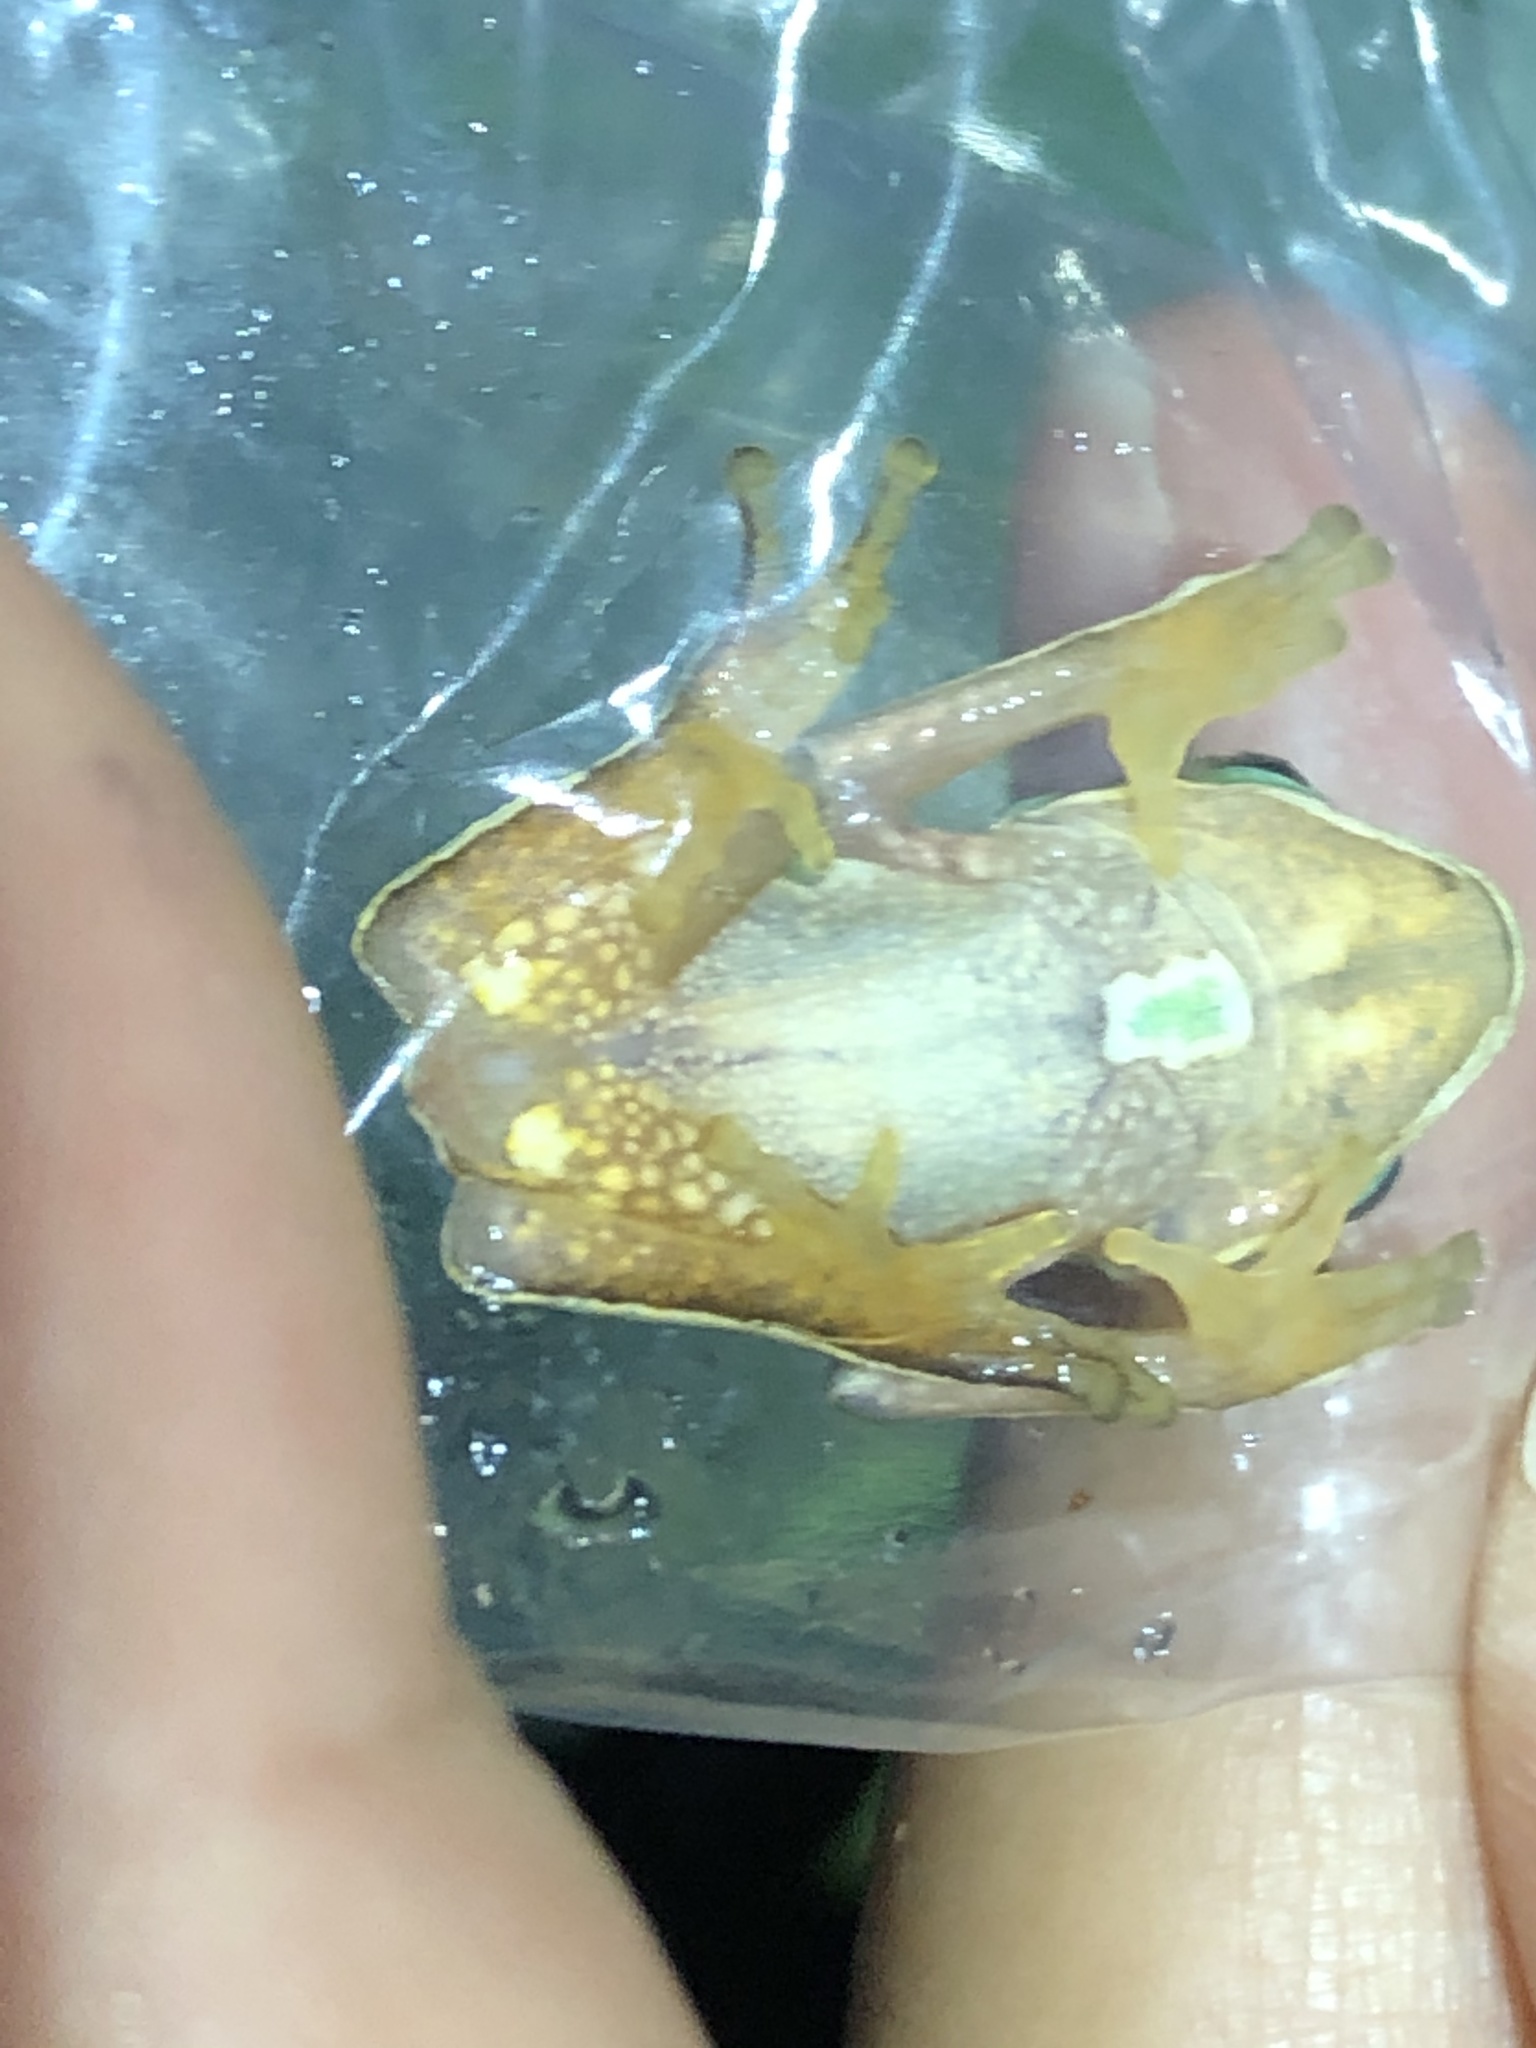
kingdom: Animalia
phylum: Chordata
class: Amphibia
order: Anura
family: Phyllomedusidae
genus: Phyllomedusa
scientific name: Phyllomedusa vaillantii
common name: White-lined leaf frog
